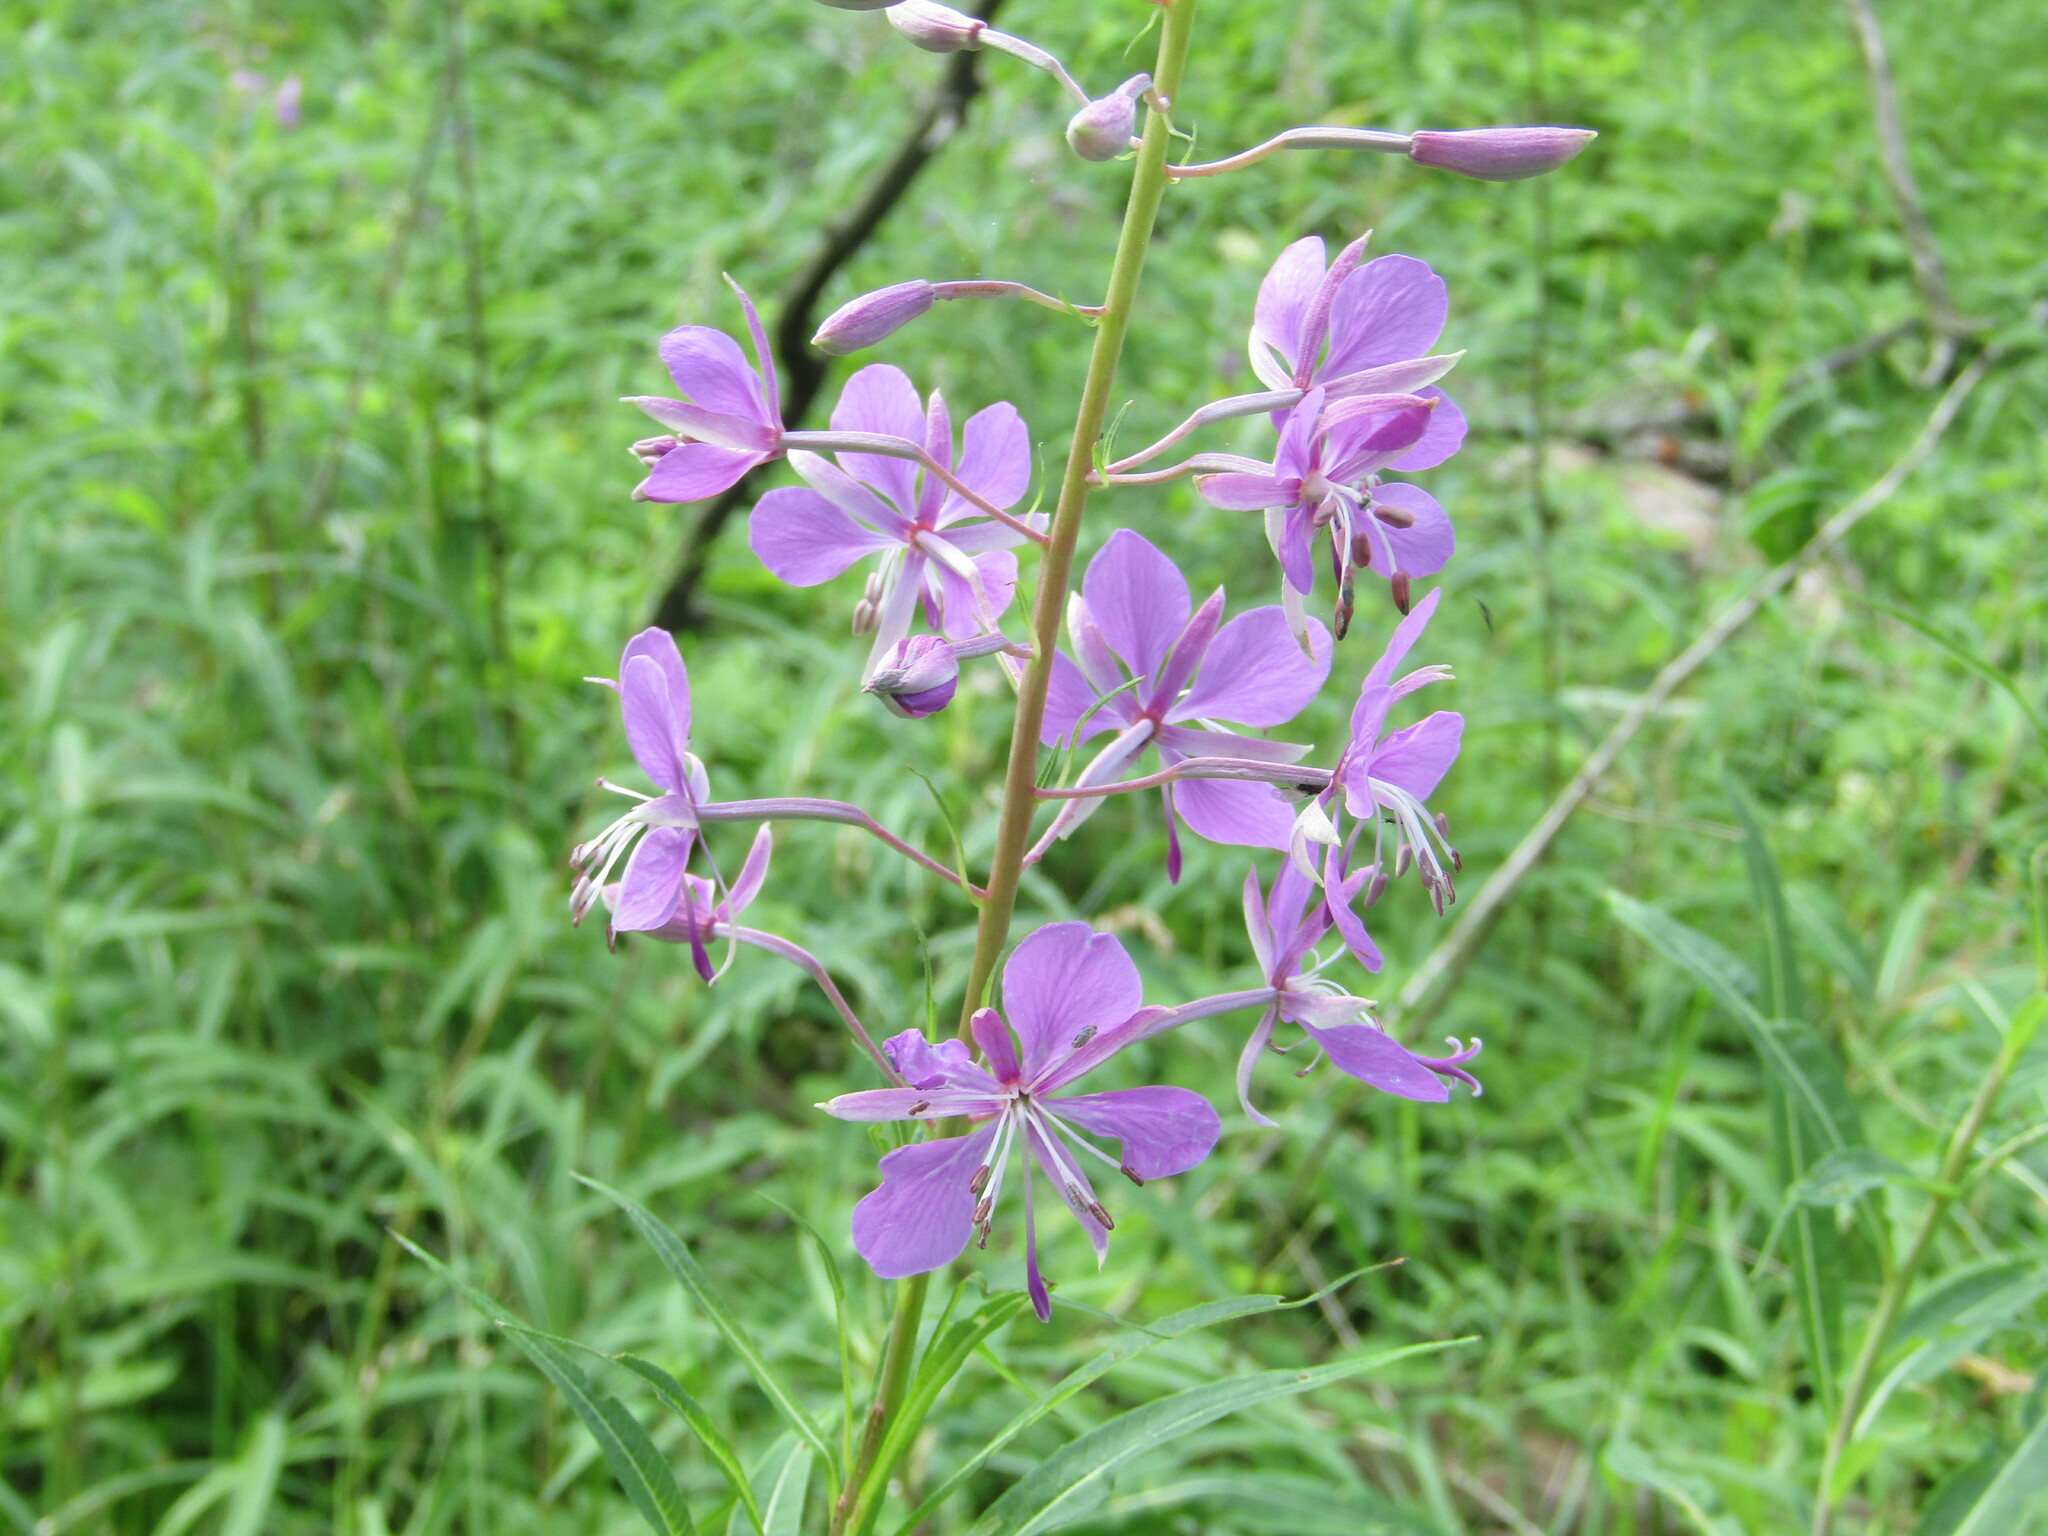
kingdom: Plantae
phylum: Tracheophyta
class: Magnoliopsida
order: Myrtales
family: Onagraceae
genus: Chamaenerion
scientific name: Chamaenerion angustifolium
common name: Fireweed
